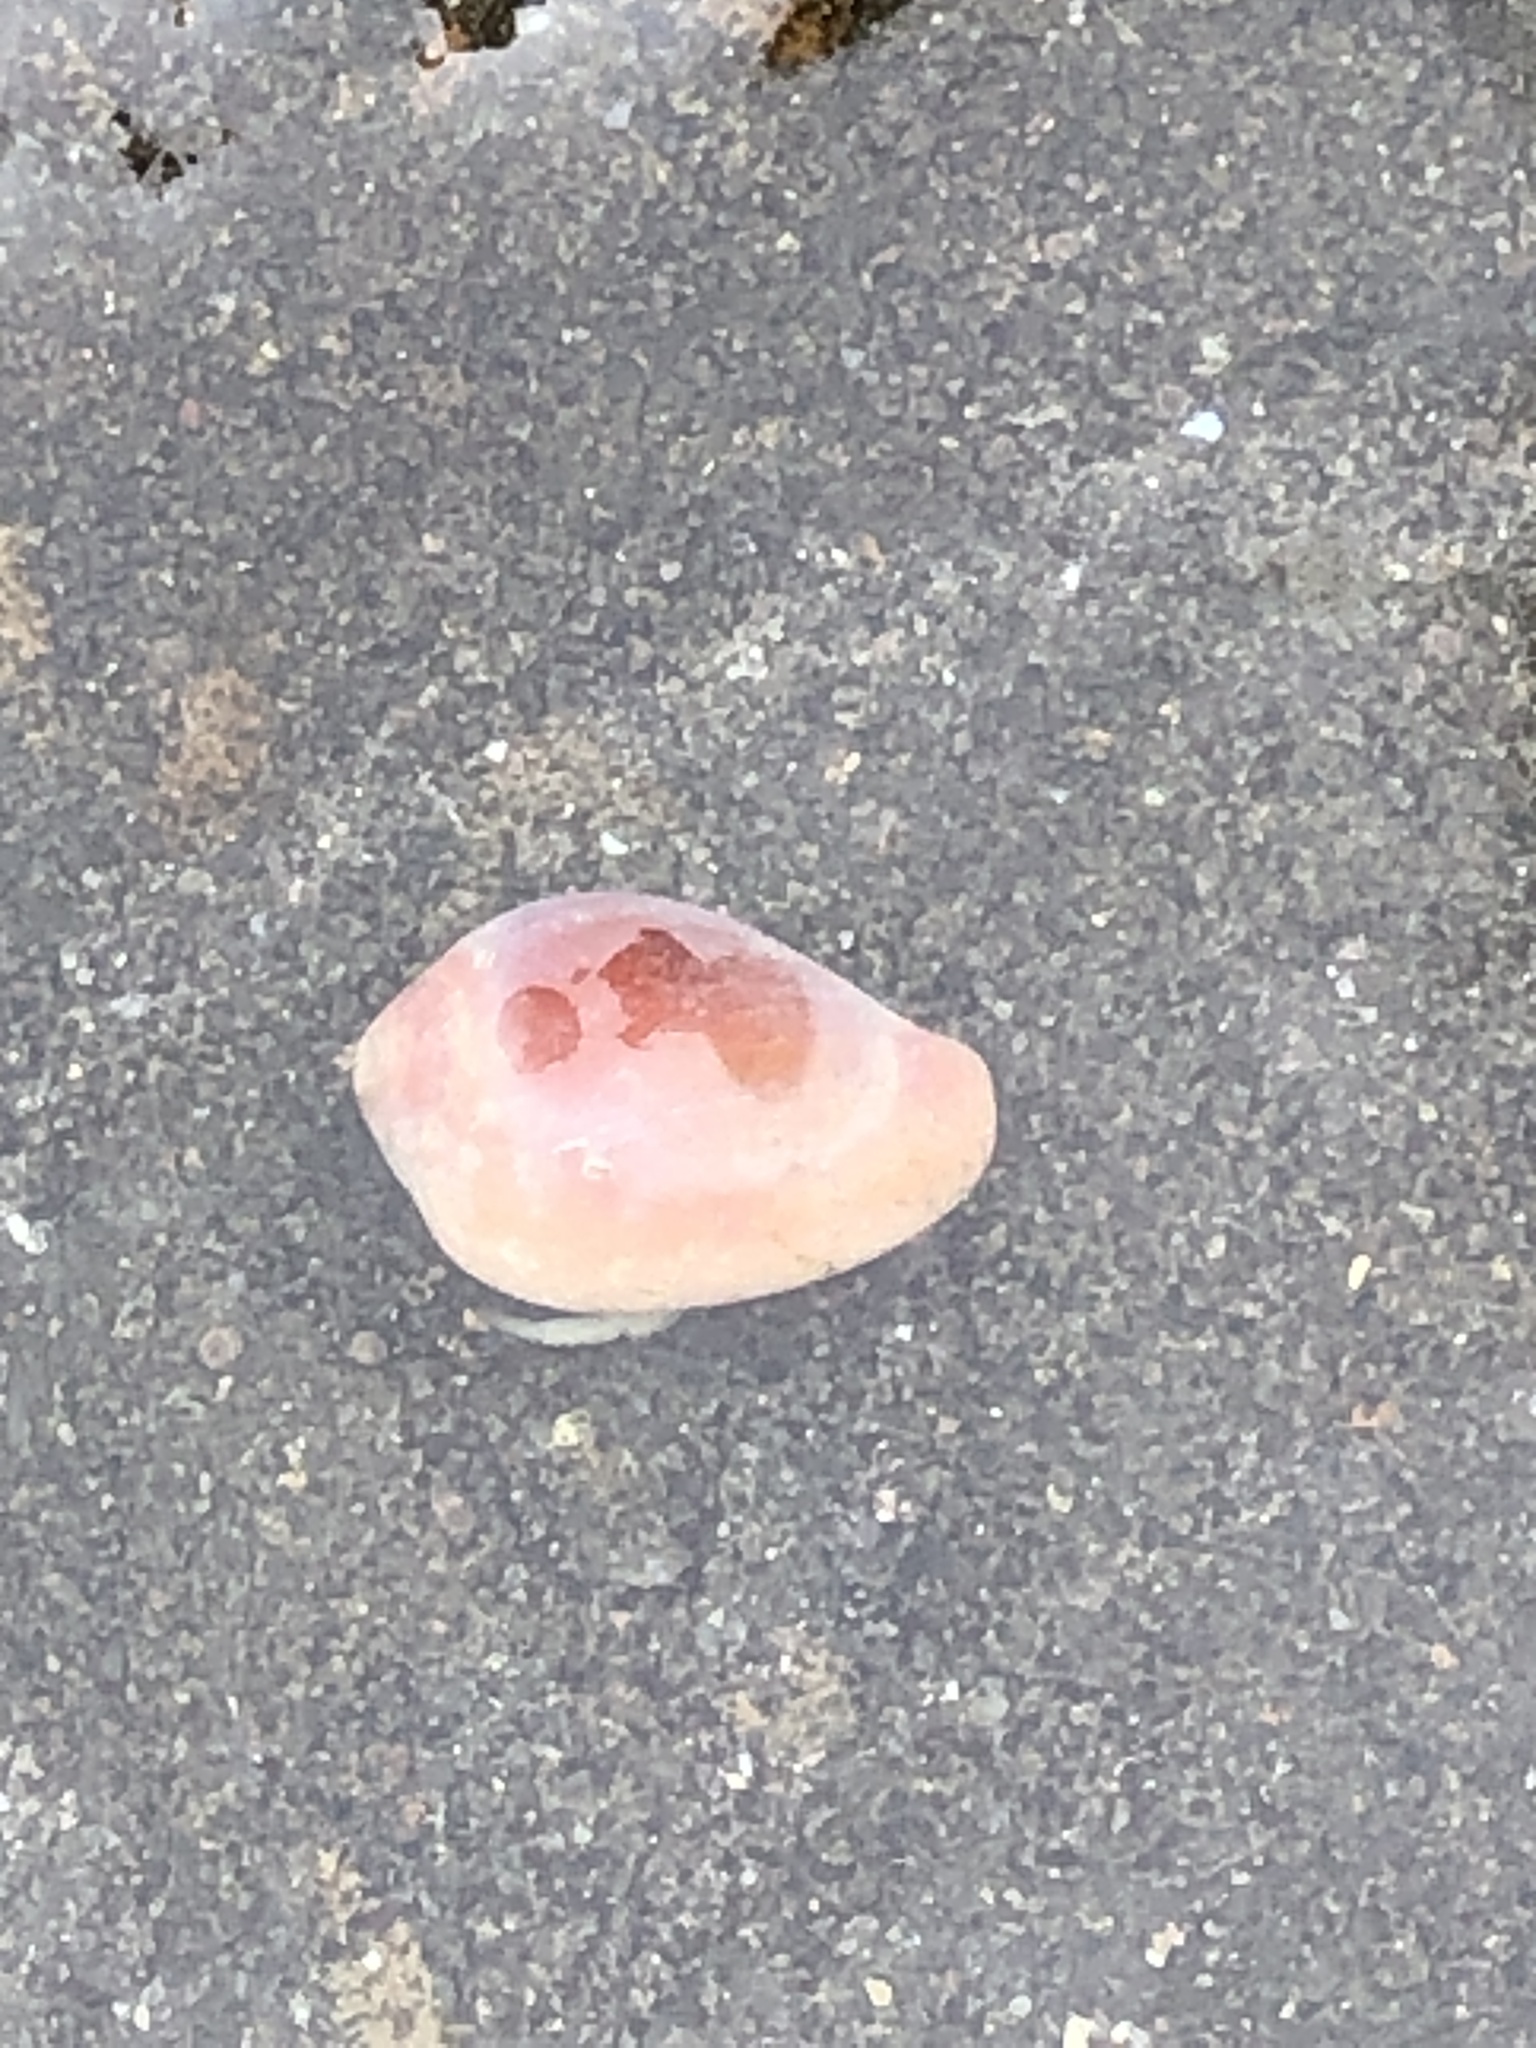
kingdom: Animalia
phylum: Mollusca
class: Gastropoda
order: Littorinimorpha
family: Eratoidae
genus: Hespererato
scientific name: Hespererato vitellina
